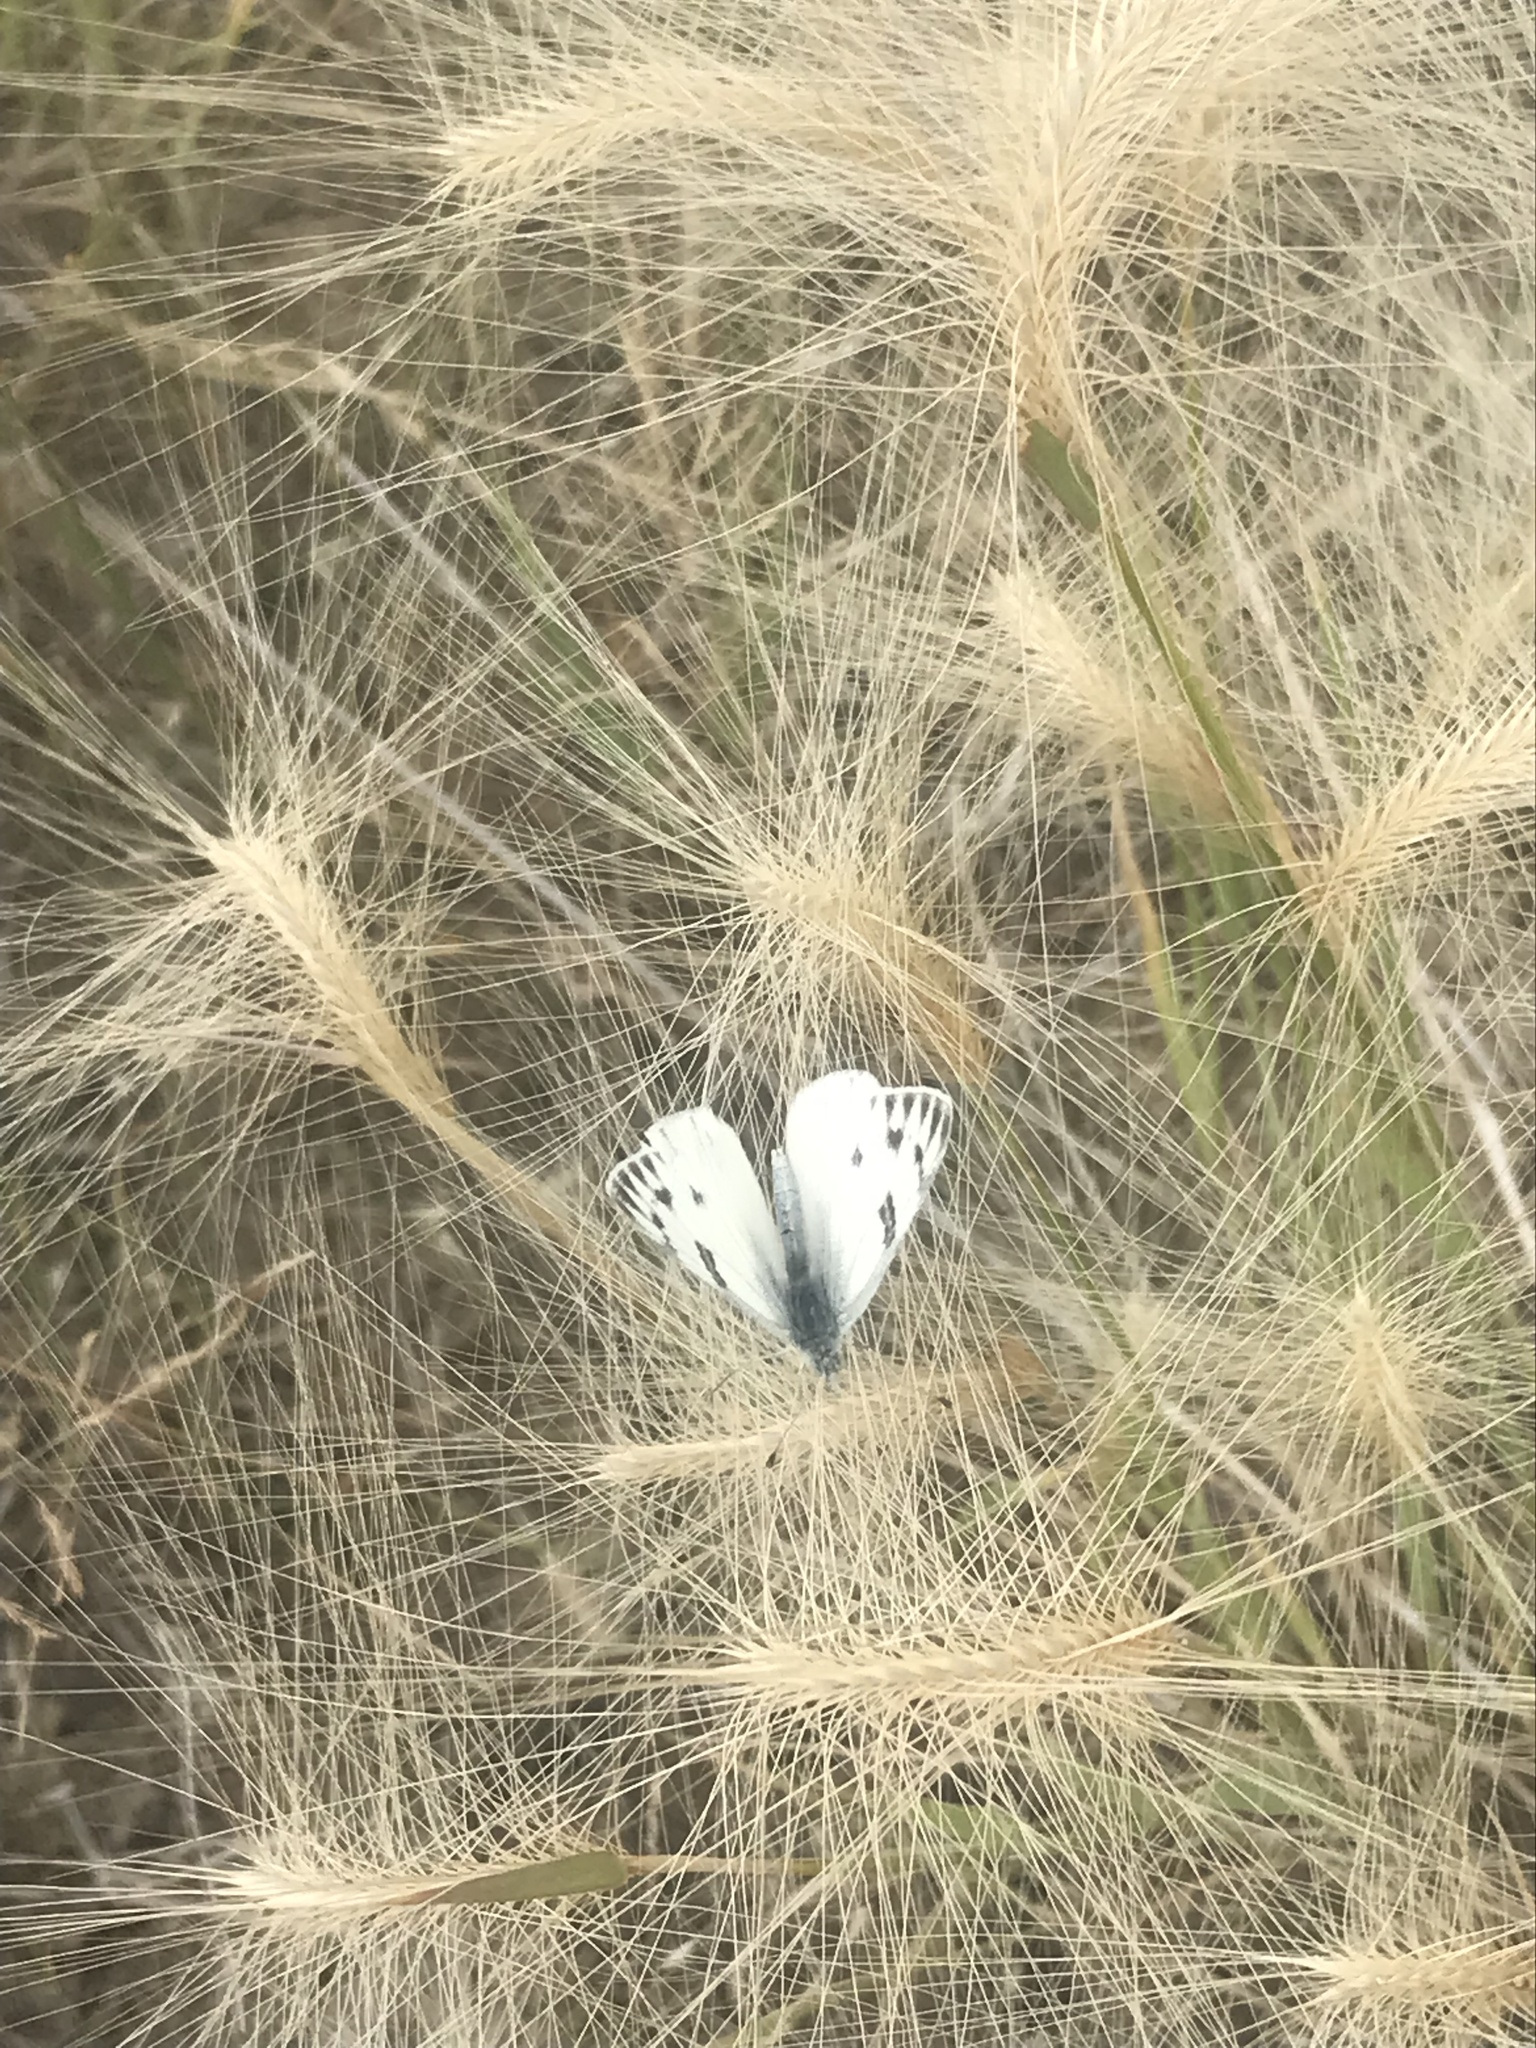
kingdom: Animalia
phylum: Arthropoda
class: Insecta
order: Lepidoptera
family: Pieridae
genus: Pontia
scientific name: Pontia occidentalis
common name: Western white
